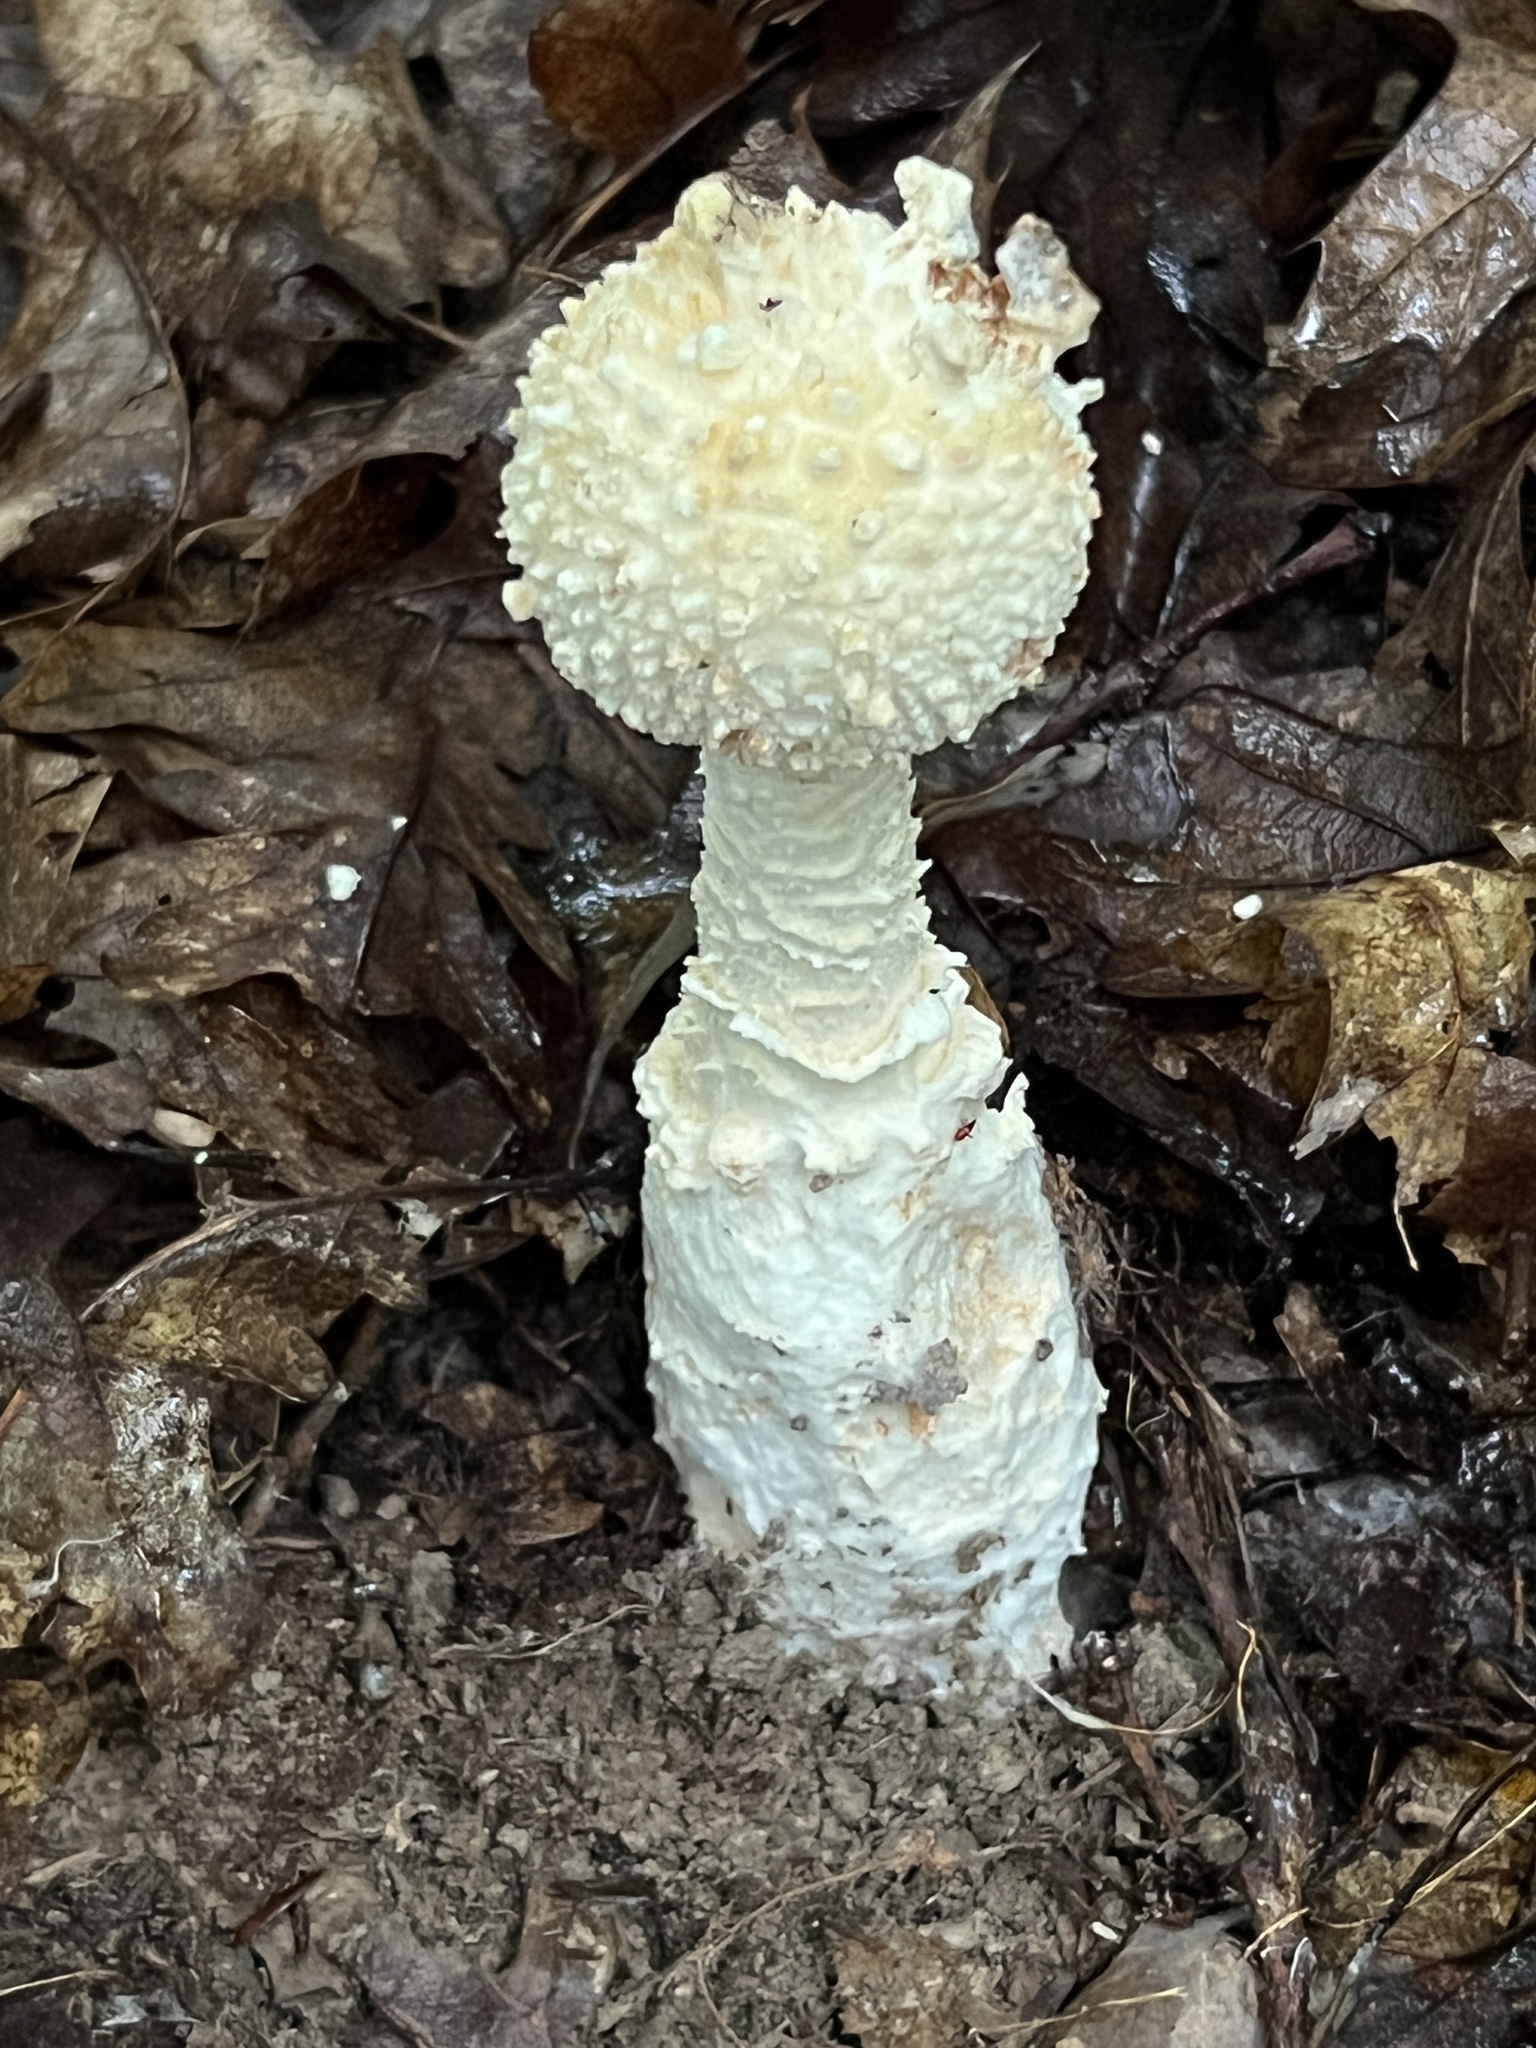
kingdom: Fungi
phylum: Basidiomycota
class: Agaricomycetes
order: Agaricales
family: Amanitaceae
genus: Amanita
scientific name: Amanita ravenelii
